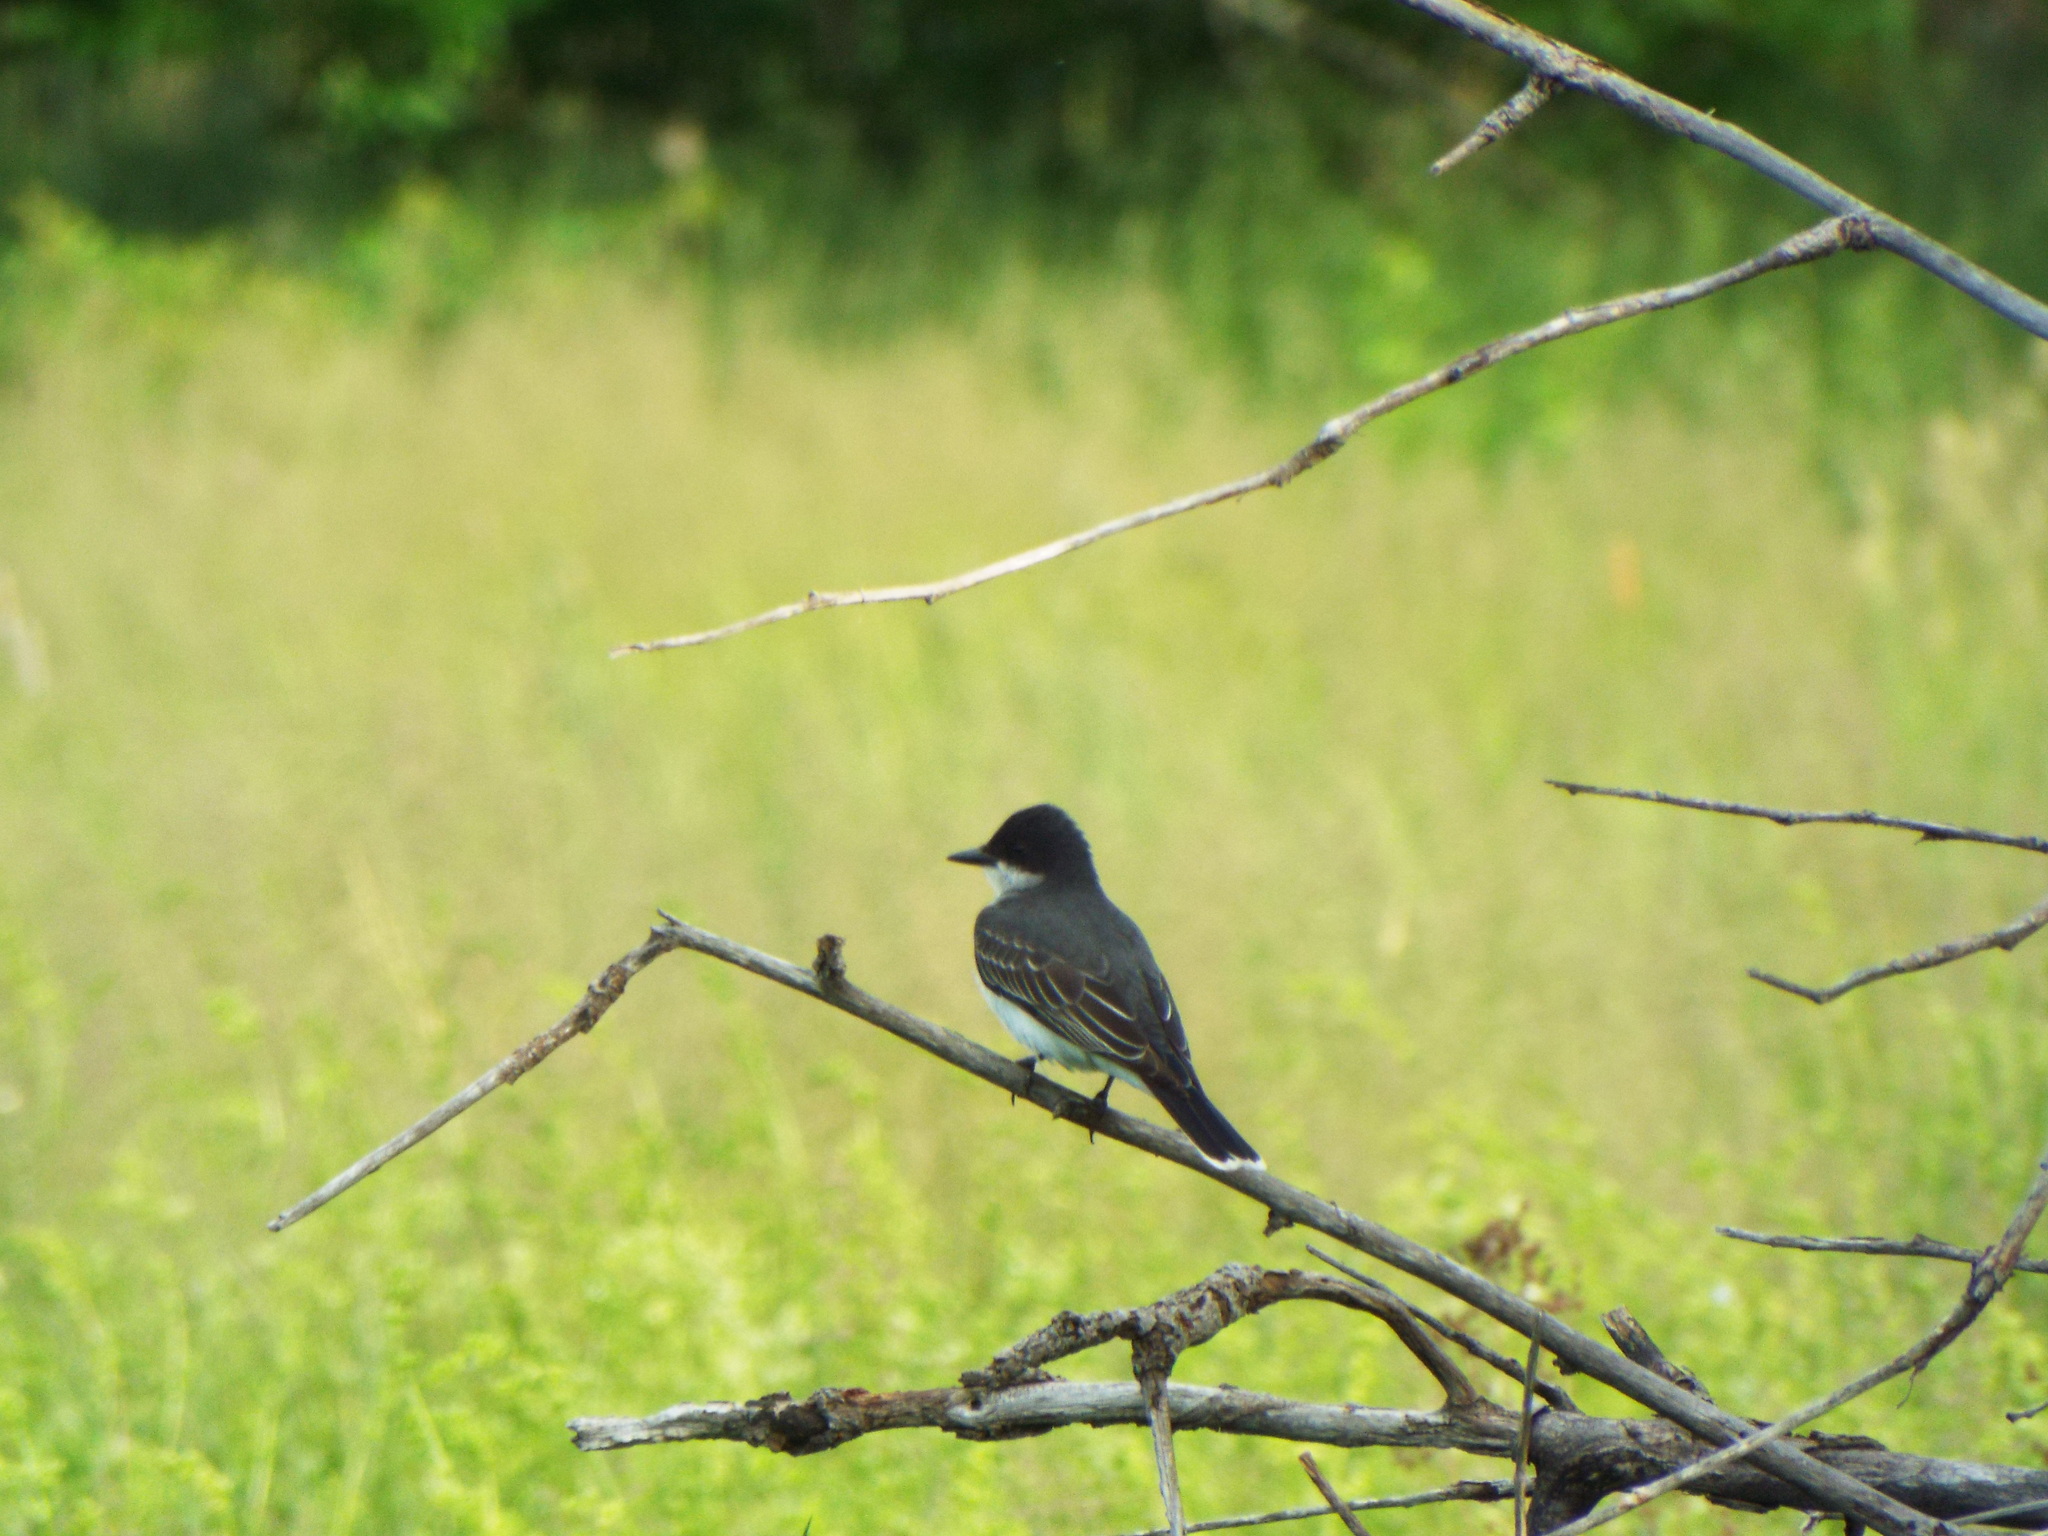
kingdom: Animalia
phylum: Chordata
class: Aves
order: Passeriformes
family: Tyrannidae
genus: Tyrannus
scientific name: Tyrannus tyrannus
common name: Eastern kingbird
